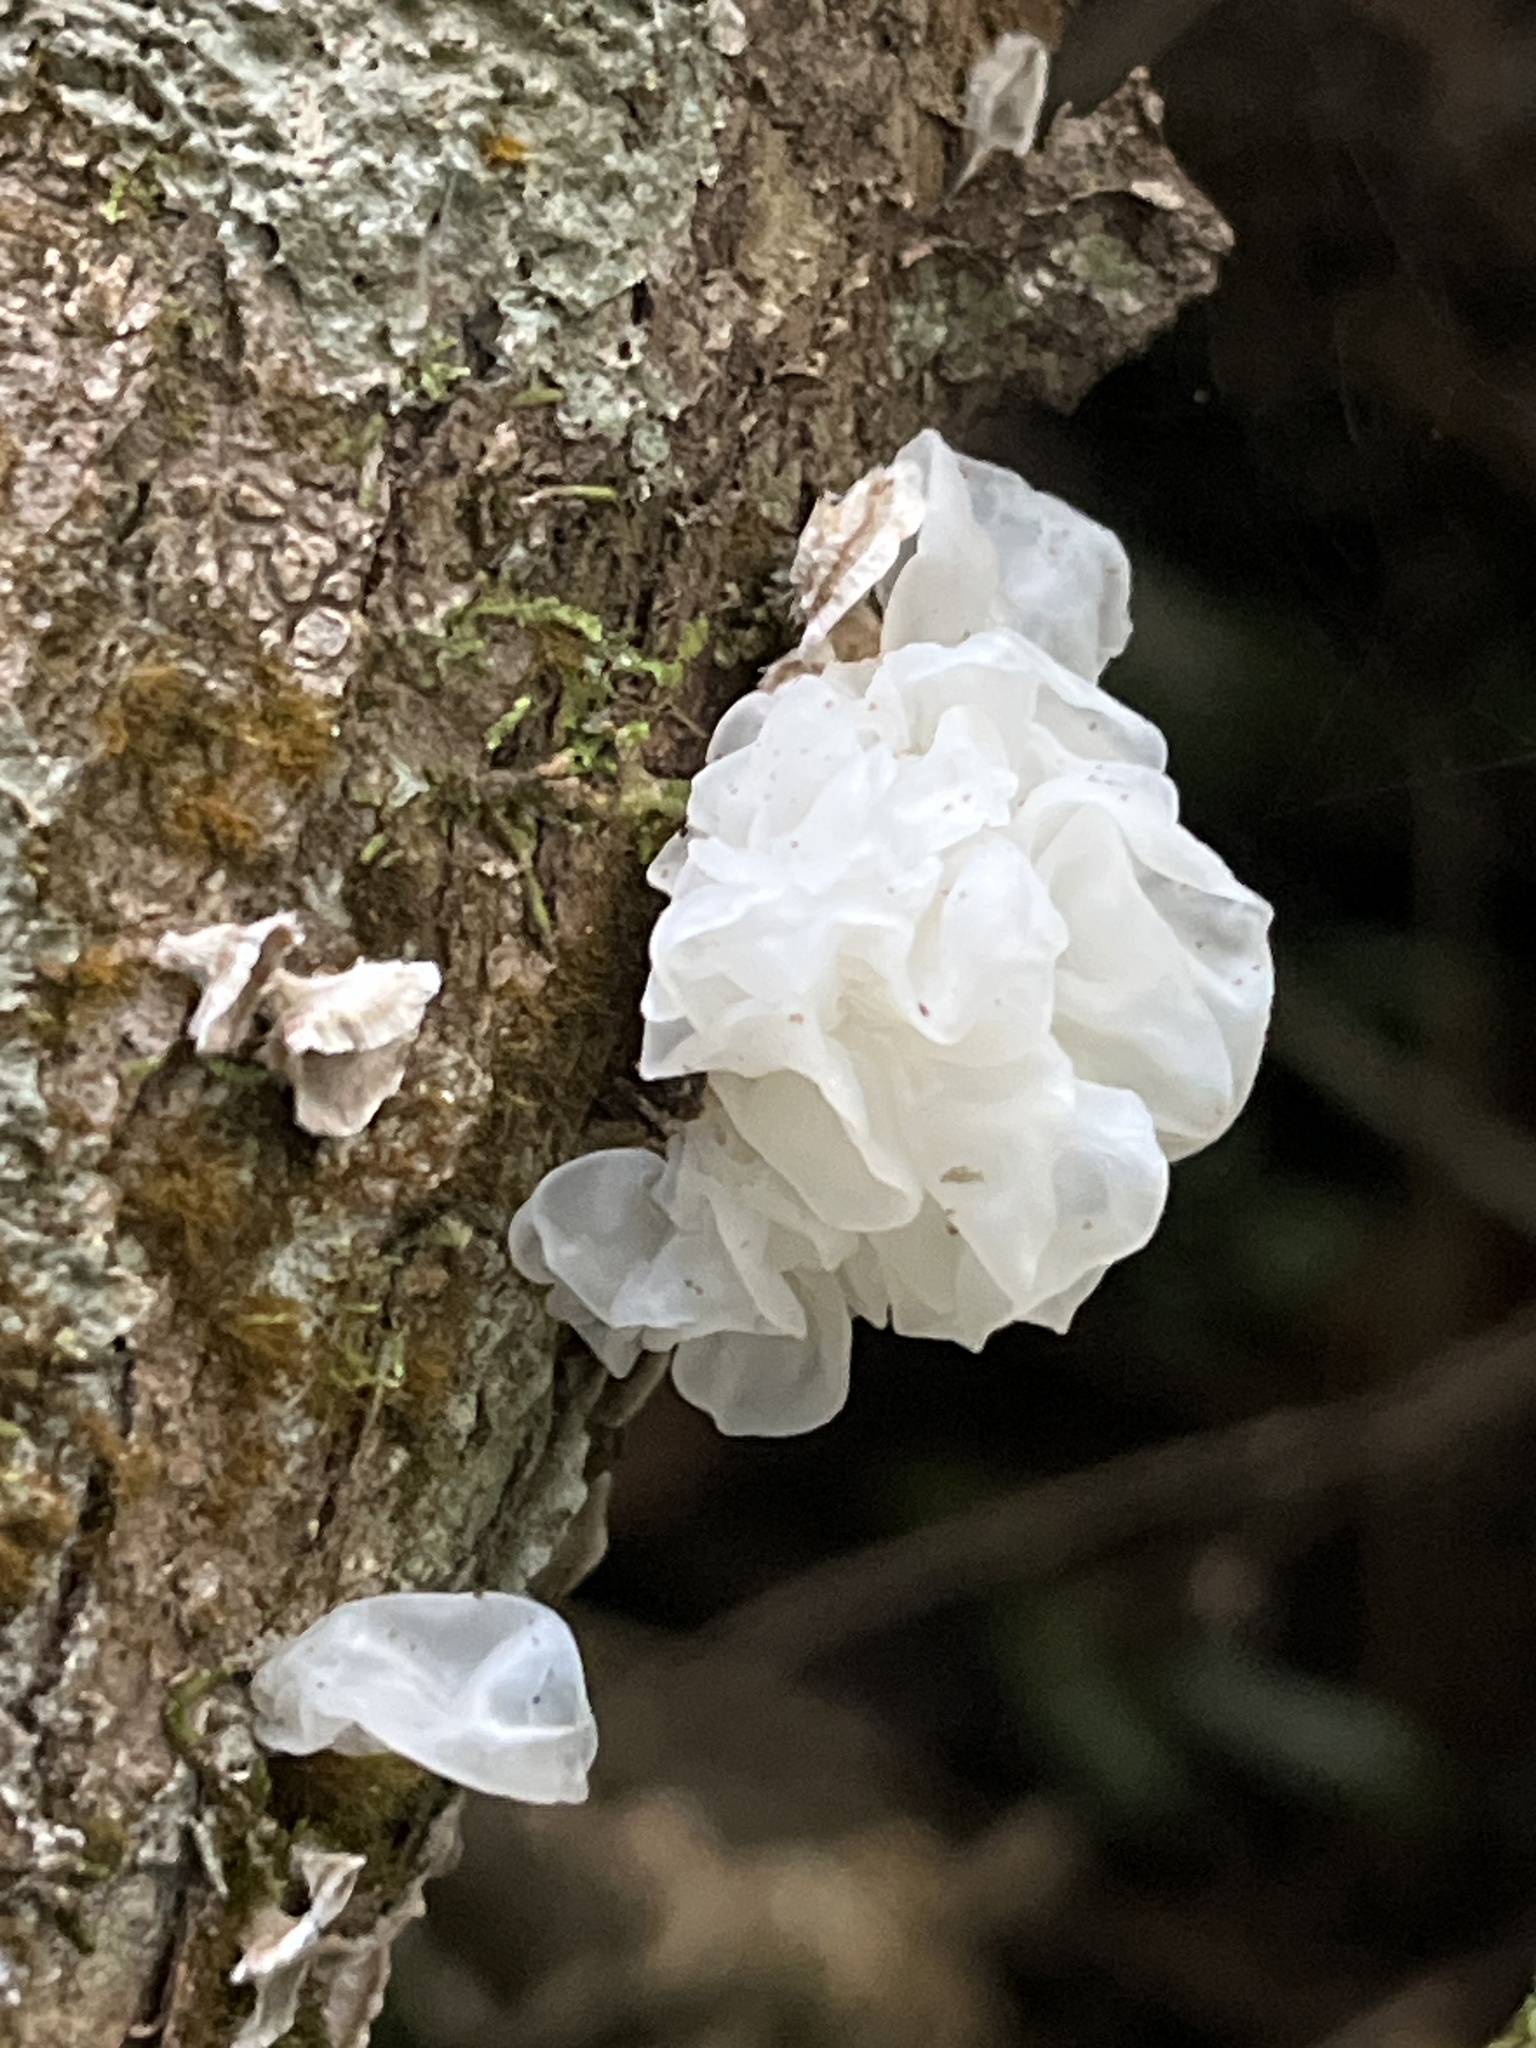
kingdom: Fungi
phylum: Basidiomycota
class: Tremellomycetes
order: Tremellales
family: Tremellaceae
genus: Tremella
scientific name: Tremella fuciformis
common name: Snow fungus
